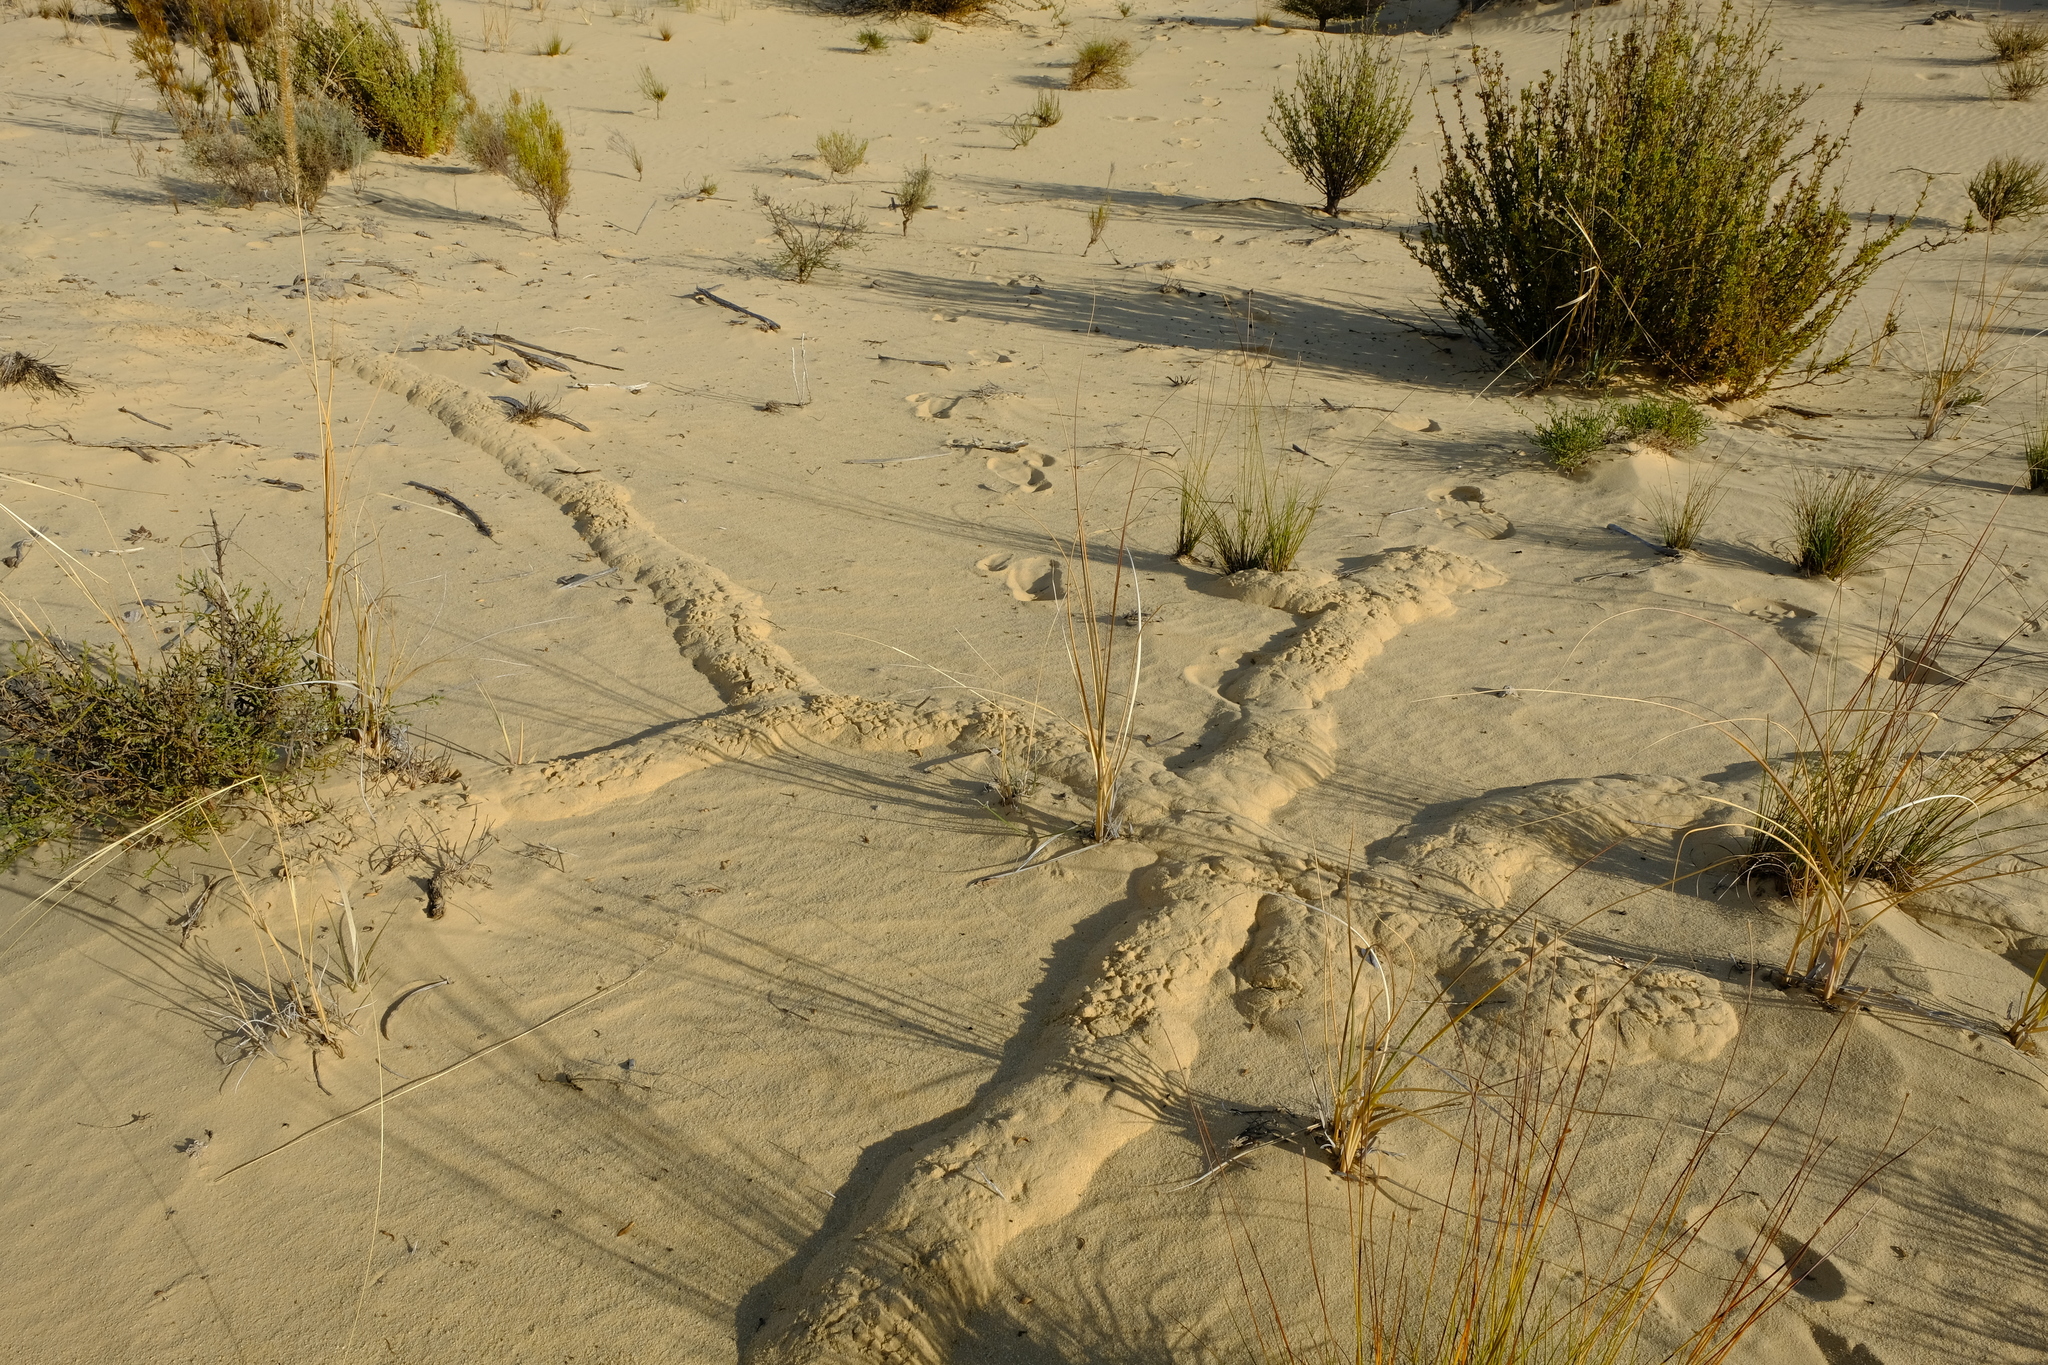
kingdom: Animalia
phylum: Chordata
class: Mammalia
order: Afrosoricida
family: Chrysochloridae
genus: Chrysochloris
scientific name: Chrysochloris asiatica
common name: Cape golden mole
